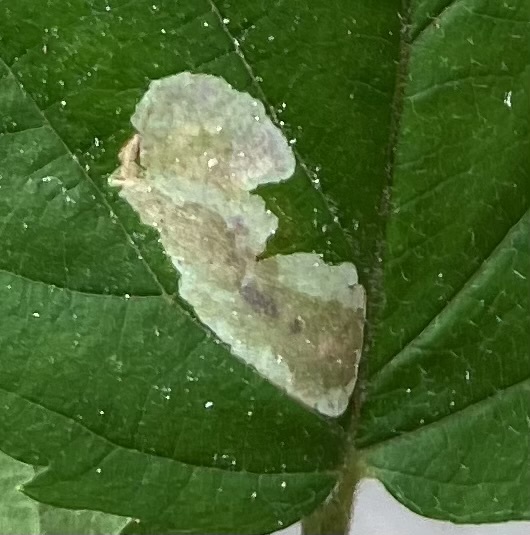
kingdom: Animalia
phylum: Arthropoda
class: Insecta
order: Lepidoptera
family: Tischeriidae
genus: Coptotriche
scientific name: Coptotriche aenea
